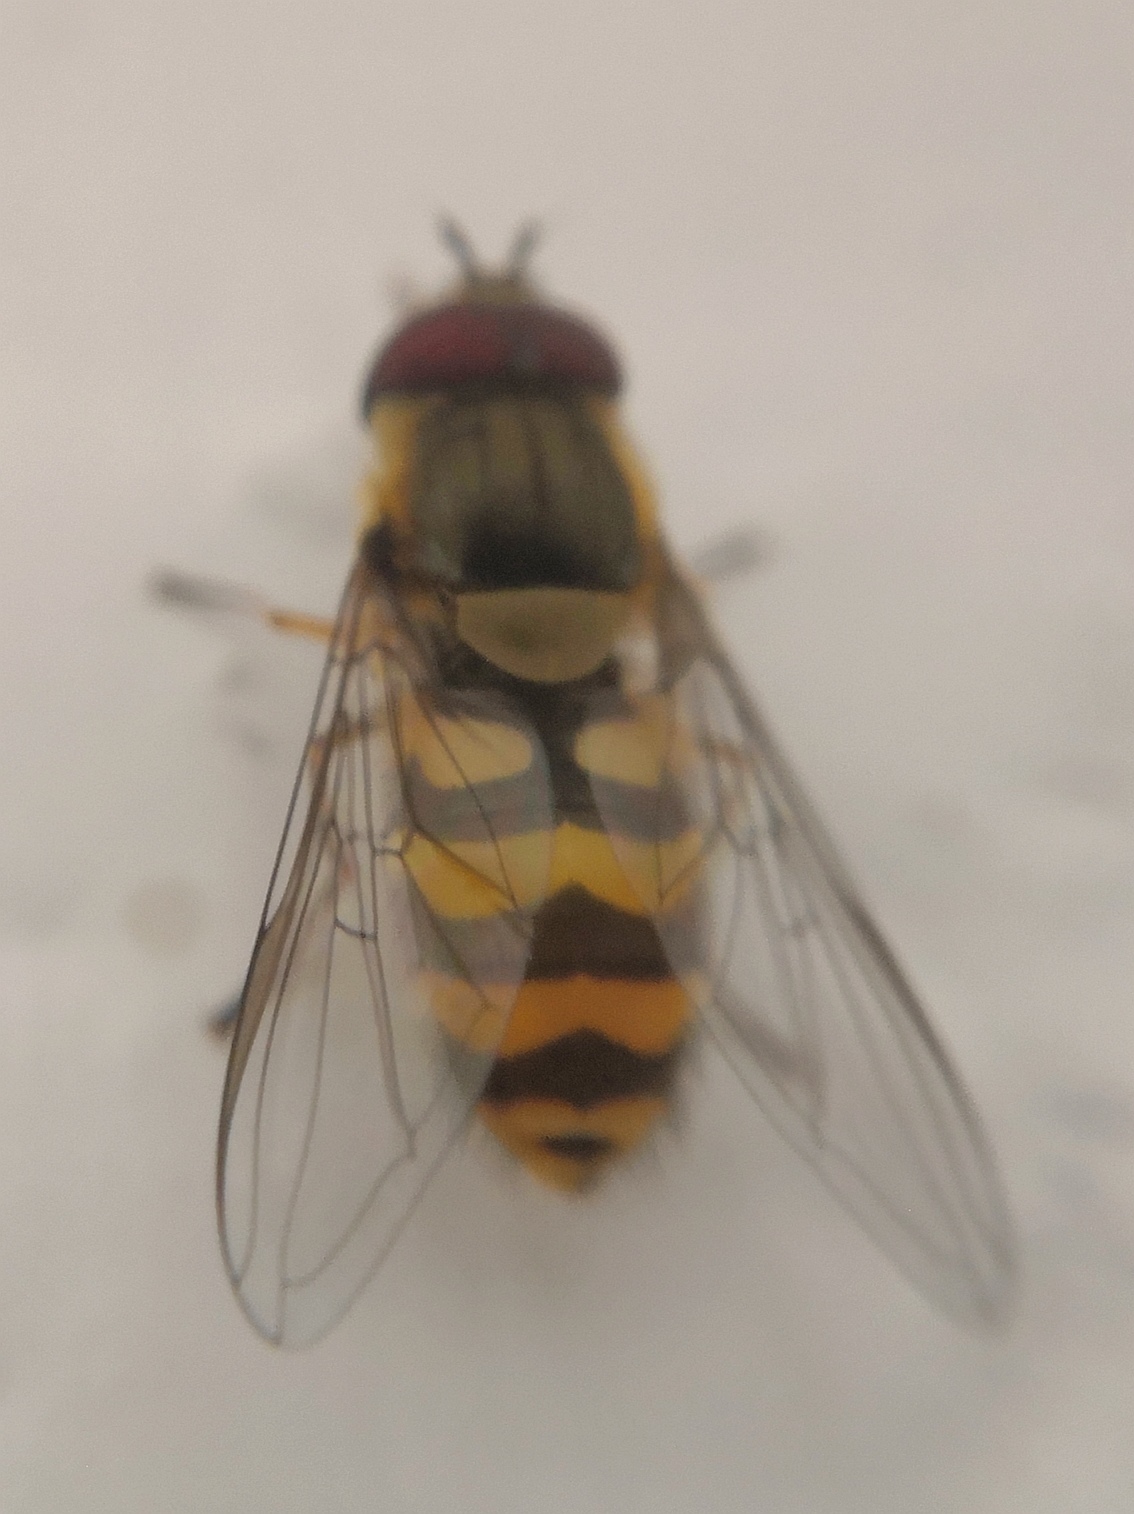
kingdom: Animalia
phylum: Arthropoda
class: Insecta
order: Diptera
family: Syrphidae
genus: Syrphus
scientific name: Syrphus ribesii
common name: Common flower fly
